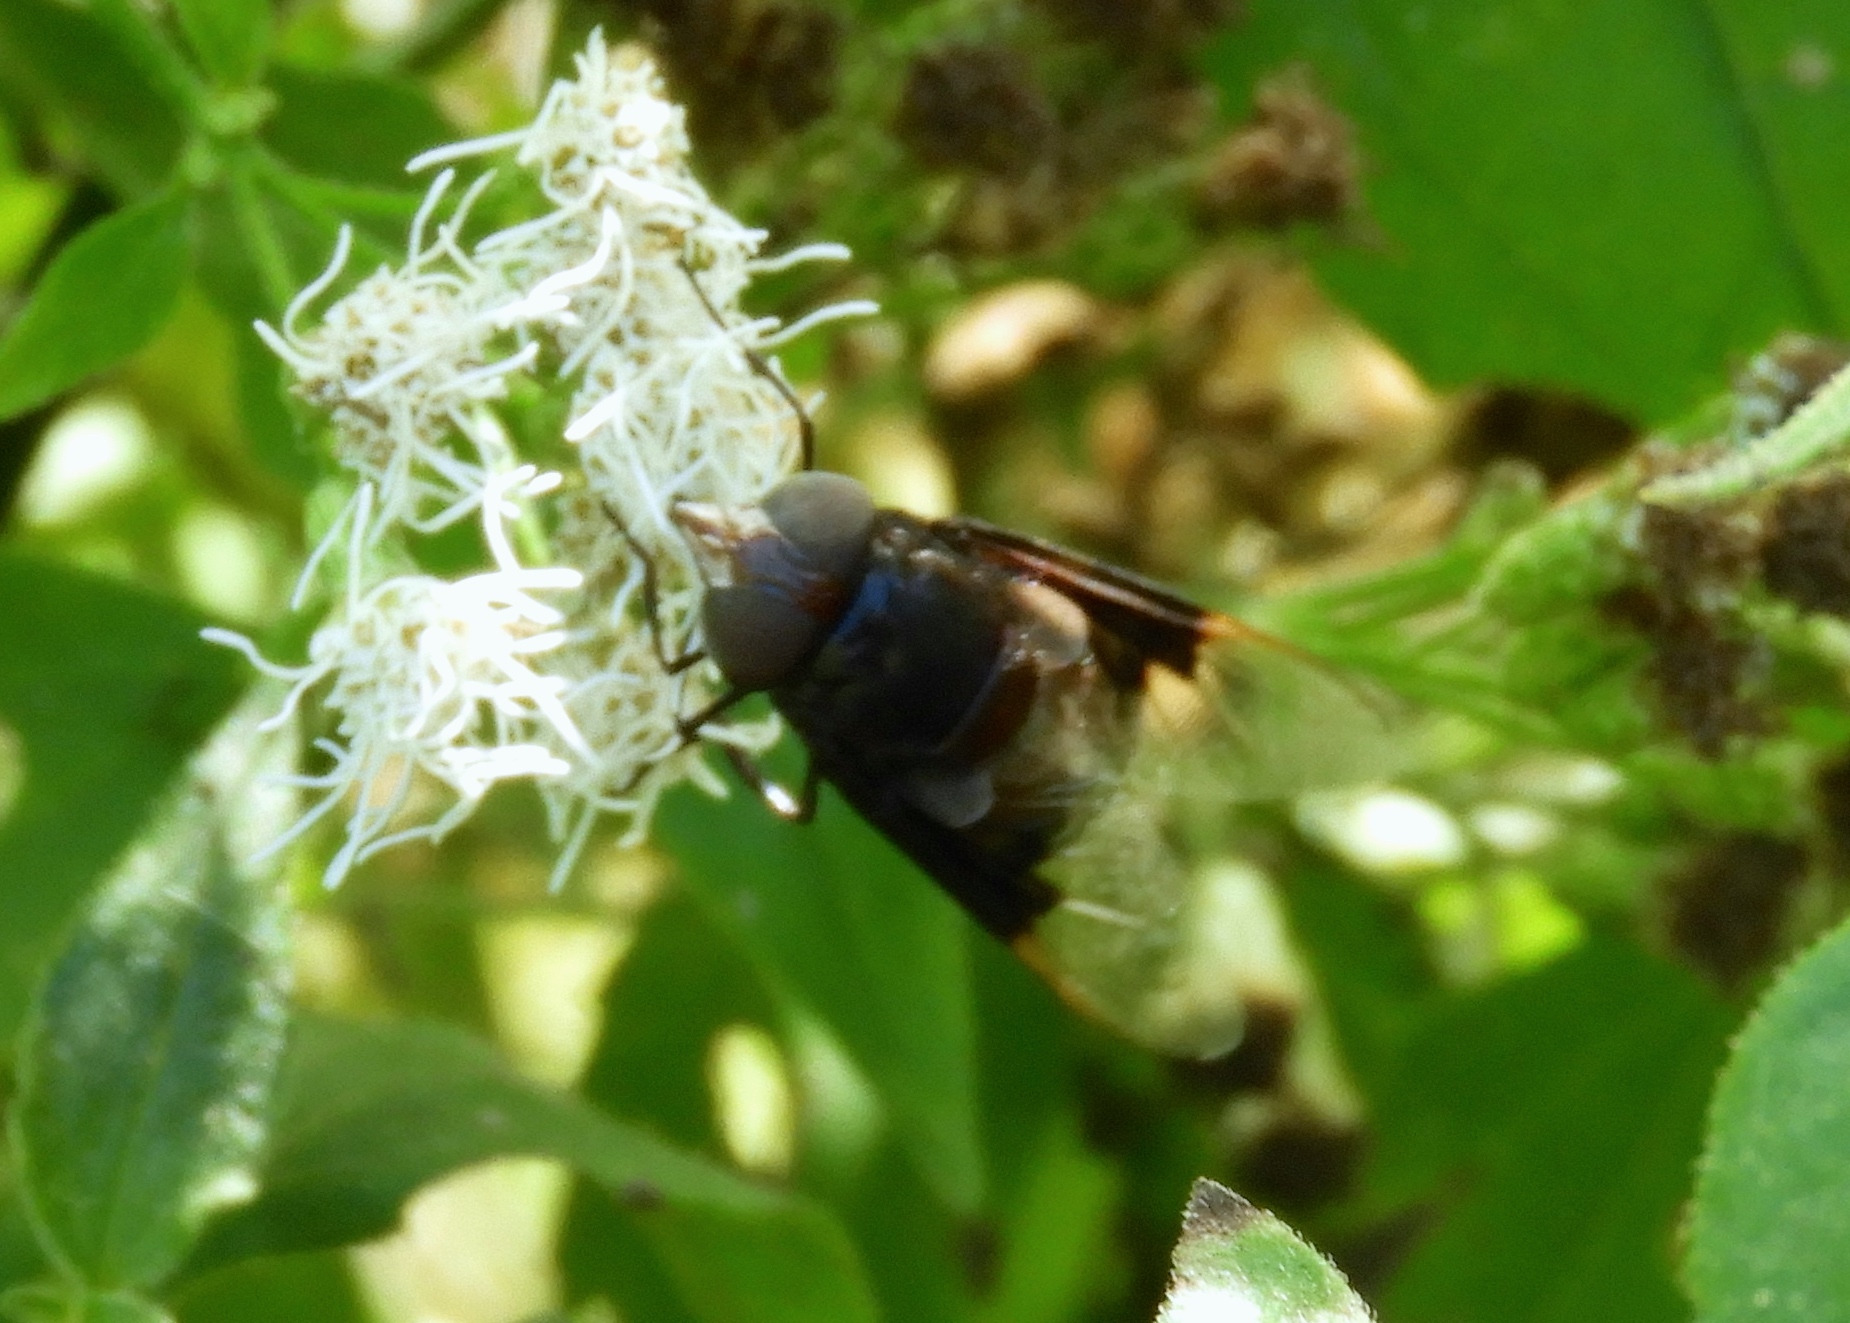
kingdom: Animalia
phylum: Arthropoda
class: Insecta
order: Diptera
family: Syrphidae
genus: Copestylum
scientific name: Copestylum mexicanum
